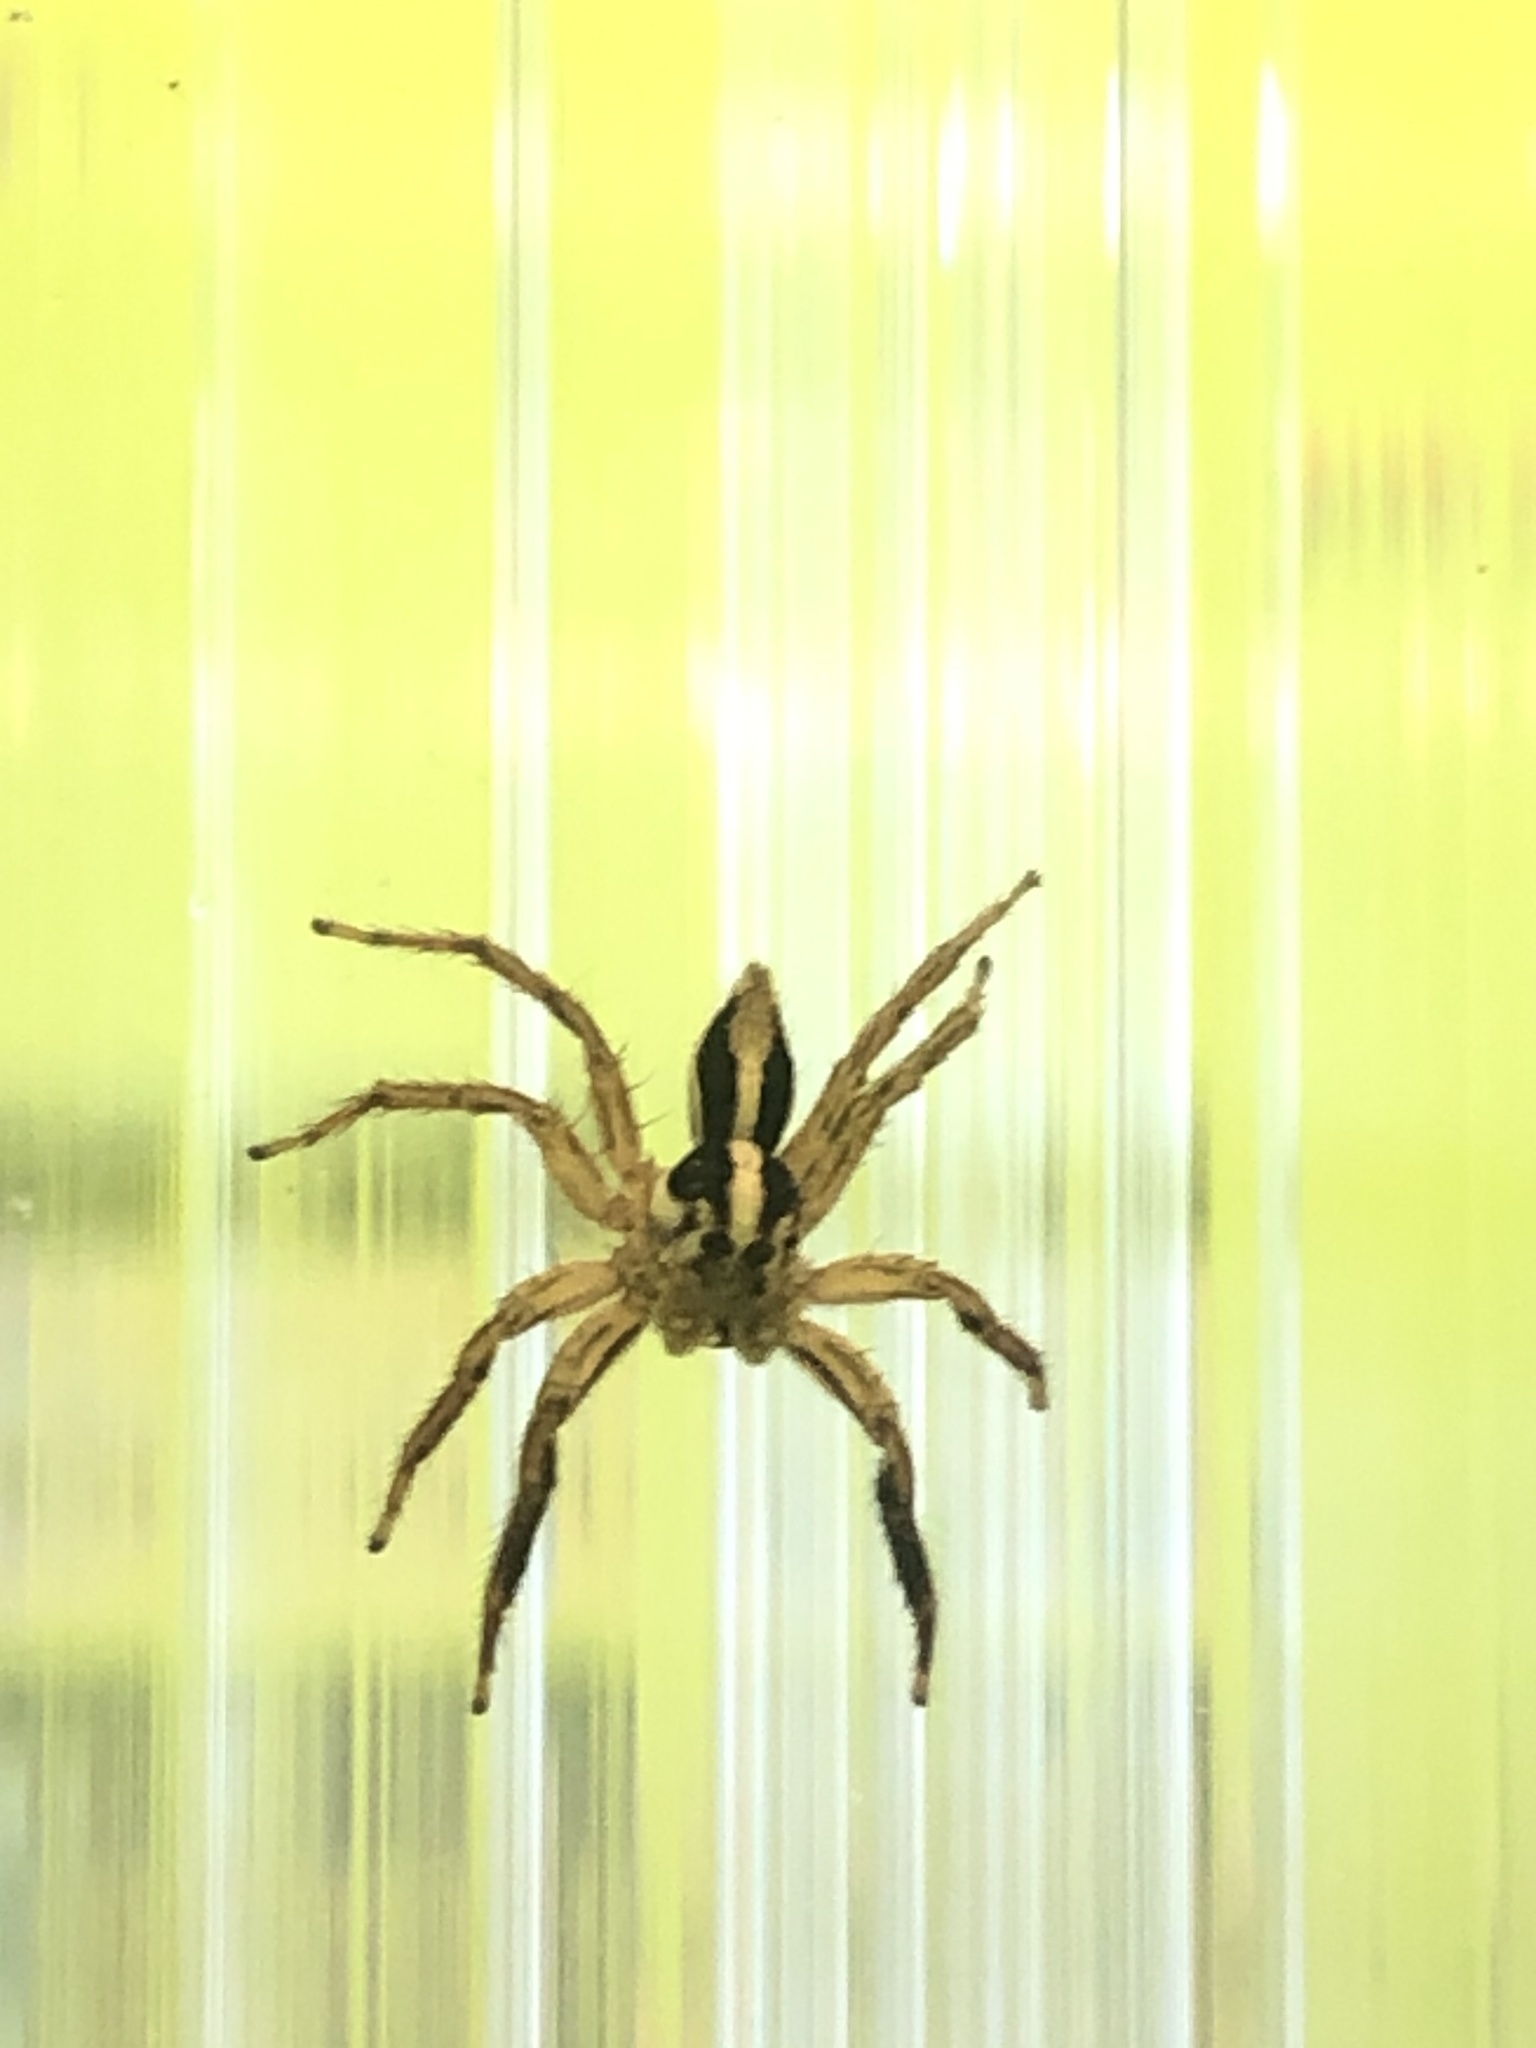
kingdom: Animalia
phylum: Arthropoda
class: Arachnida
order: Araneae
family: Salticidae
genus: Plexippus
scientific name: Plexippus paykulli
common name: Pantropical jumper
